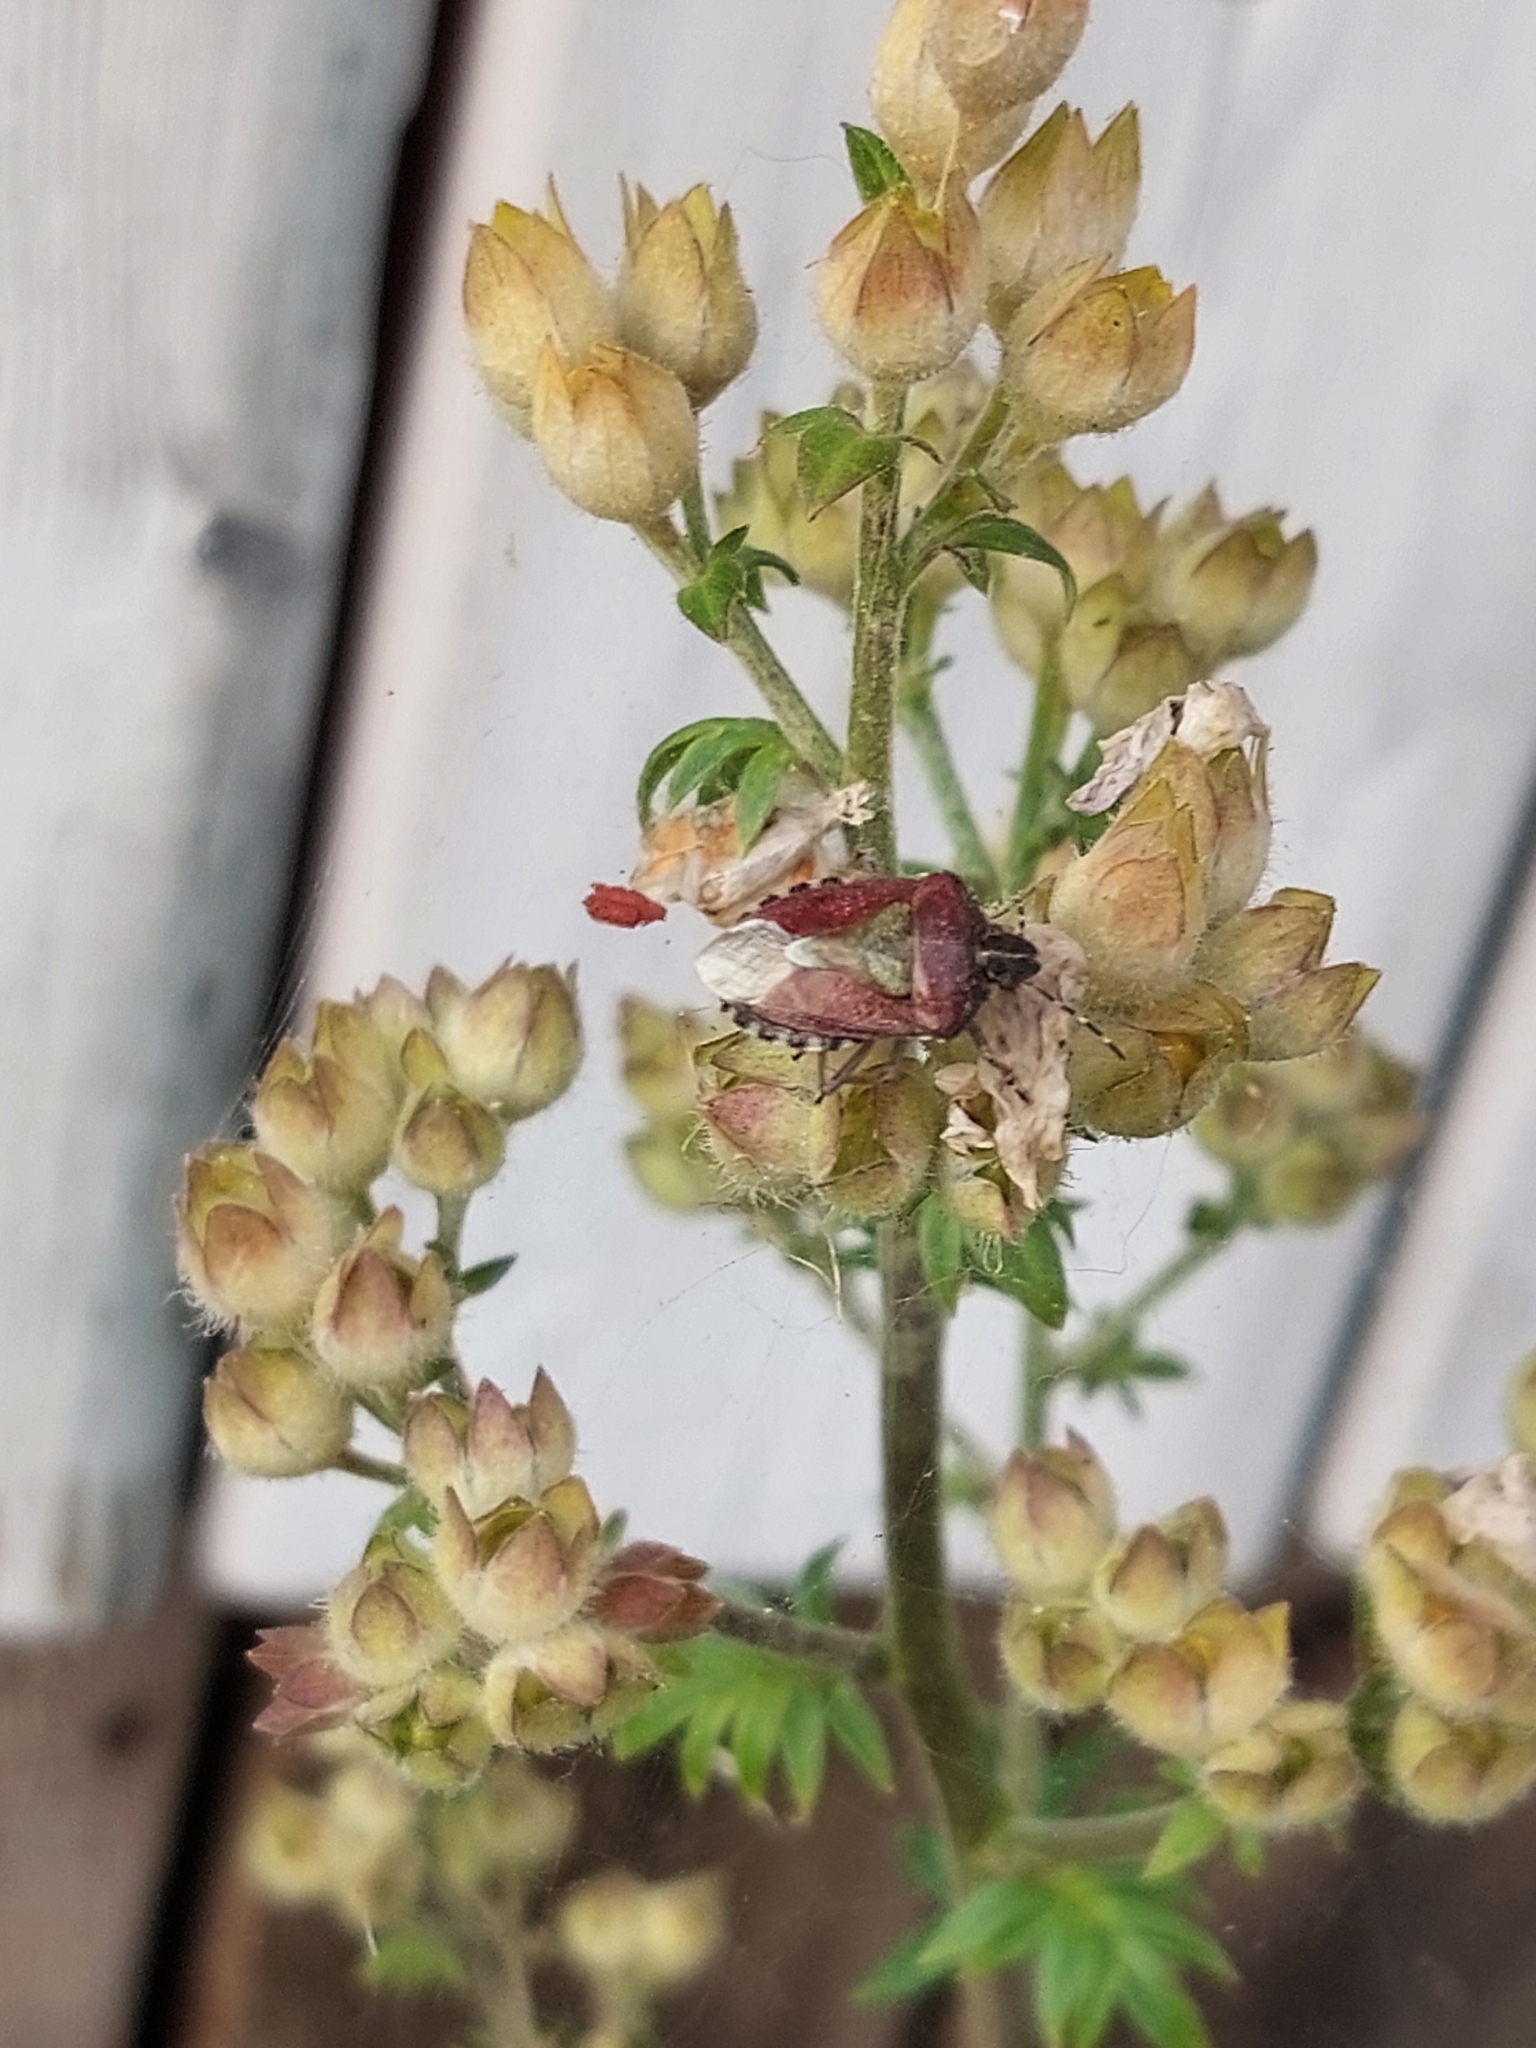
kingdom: Animalia
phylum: Arthropoda
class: Insecta
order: Hemiptera
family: Pentatomidae
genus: Dolycoris
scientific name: Dolycoris baccarum
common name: Sloe bug
